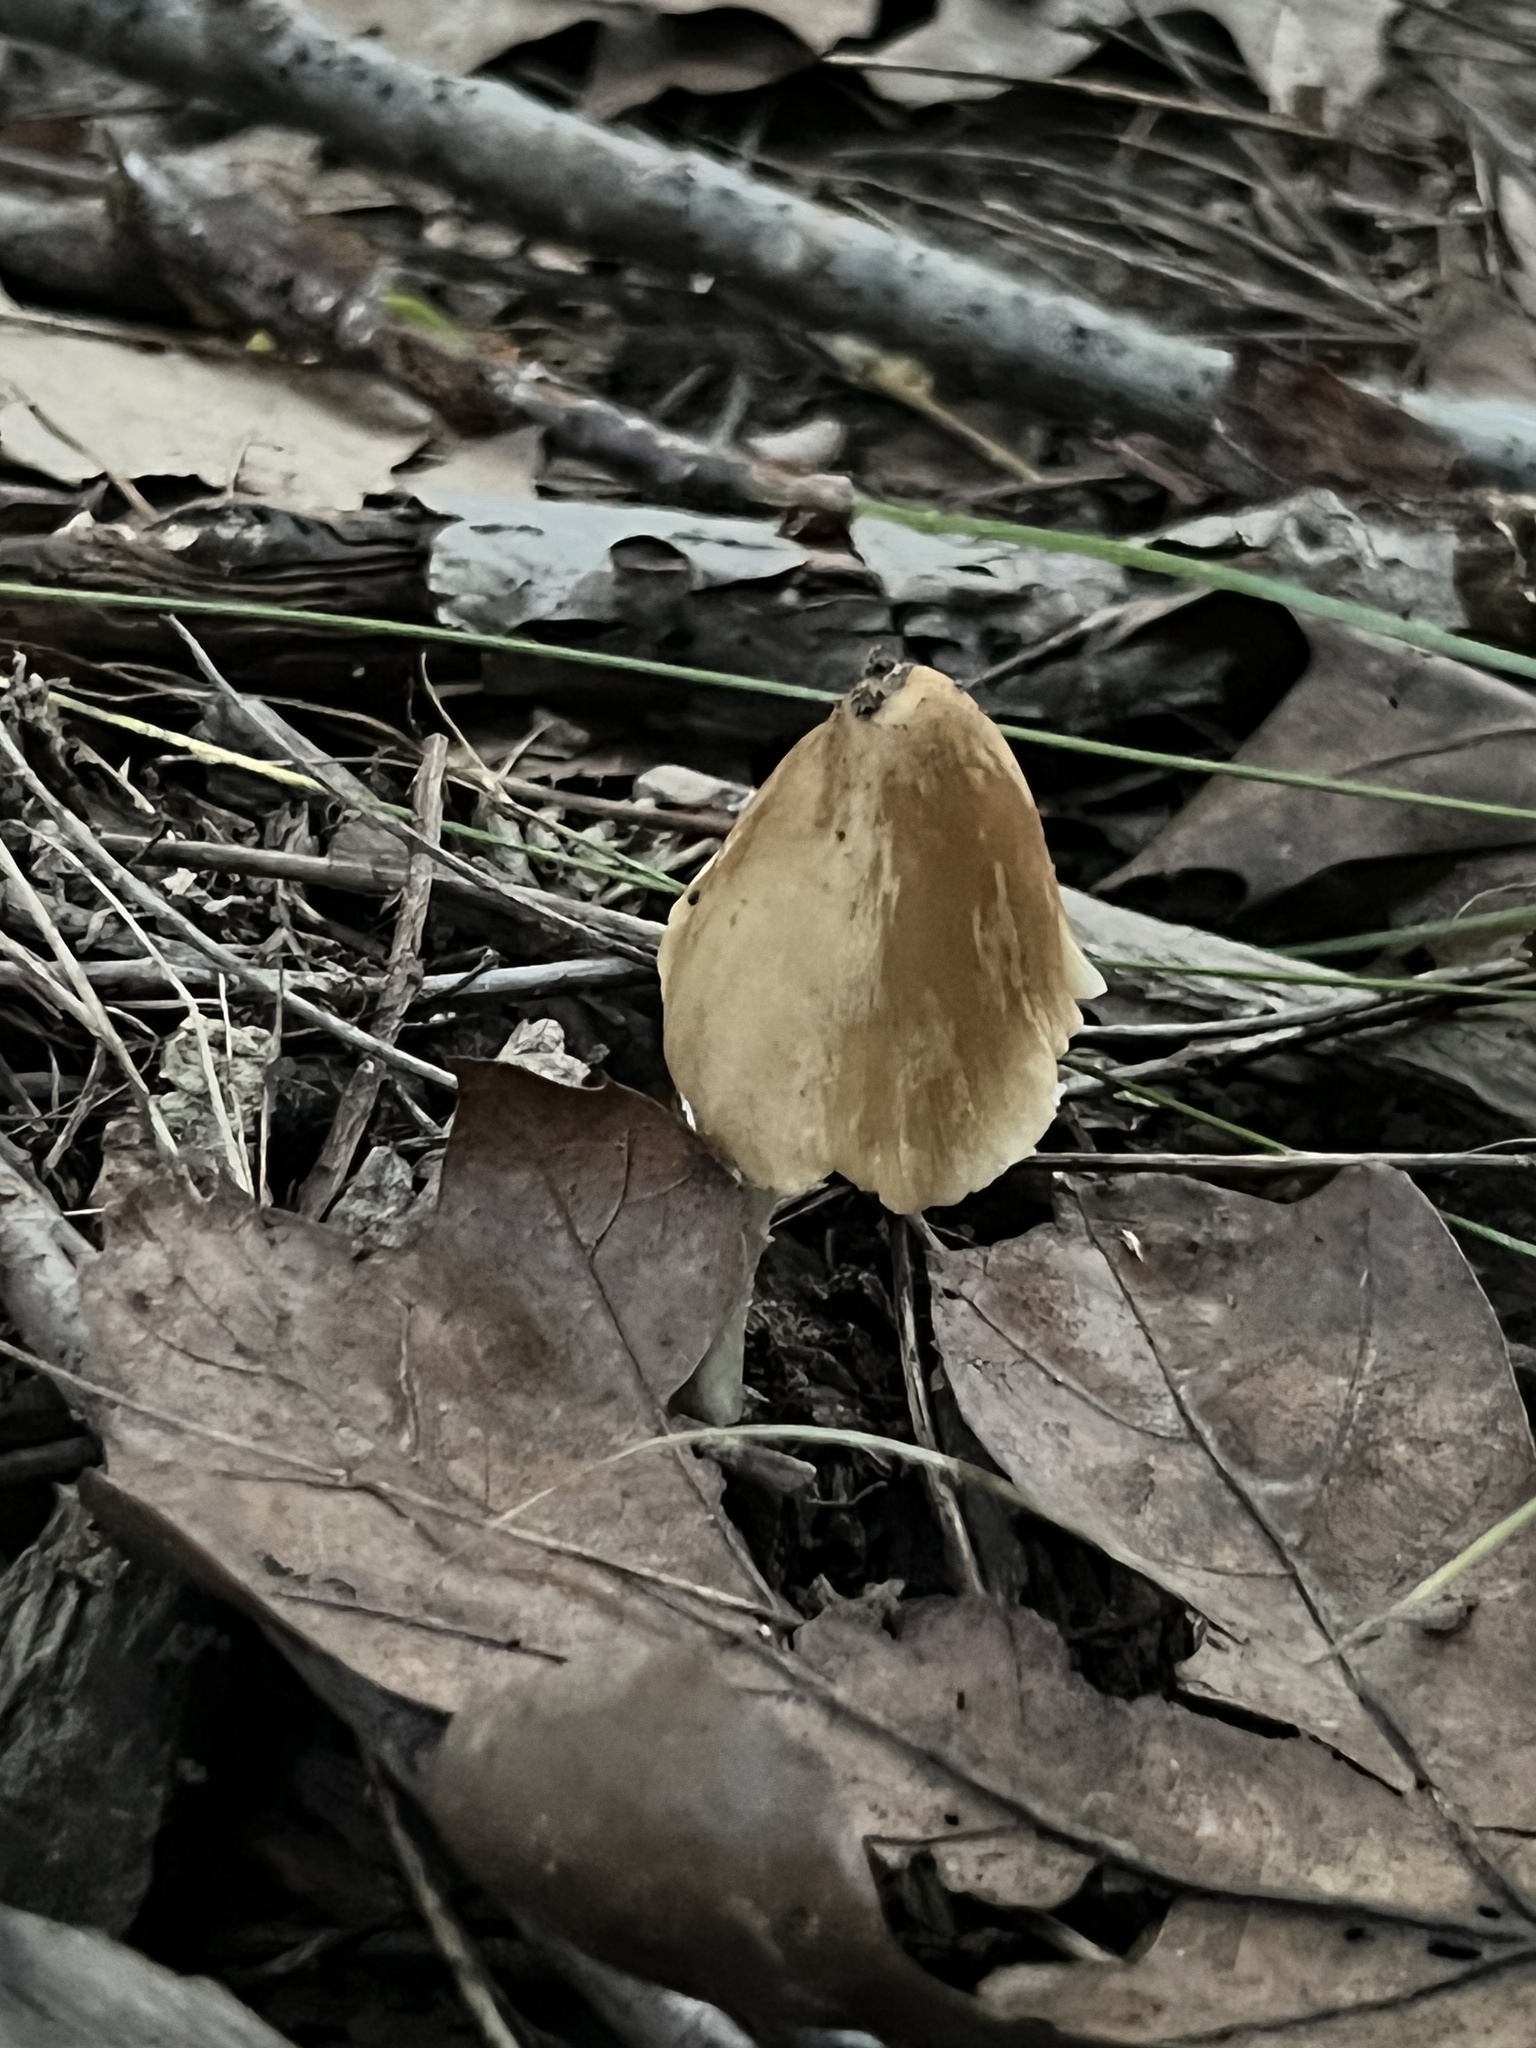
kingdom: Fungi
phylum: Basidiomycota
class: Agaricomycetes
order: Agaricales
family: Psathyrellaceae
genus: Candolleomyces
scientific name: Candolleomyces candolleanus
